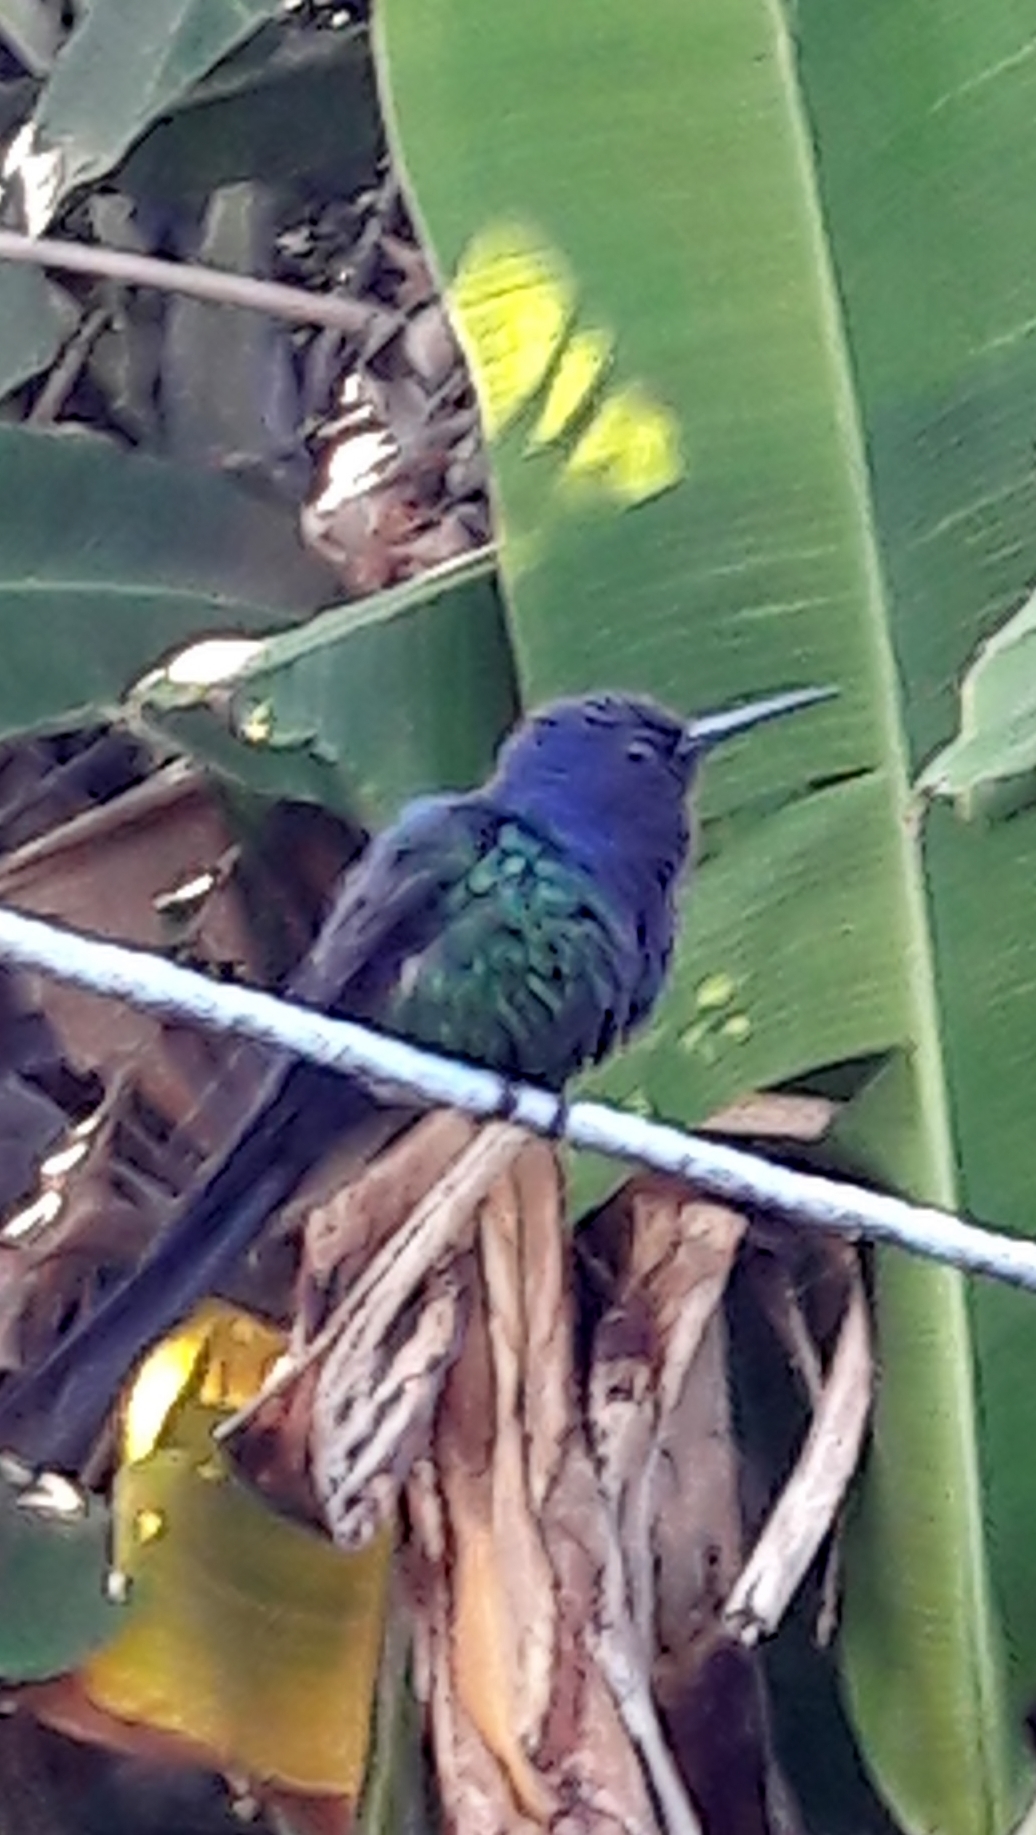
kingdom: Animalia
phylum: Chordata
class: Aves
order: Apodiformes
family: Trochilidae
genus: Eupetomena
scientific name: Eupetomena macroura
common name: Swallow-tailed hummingbird
